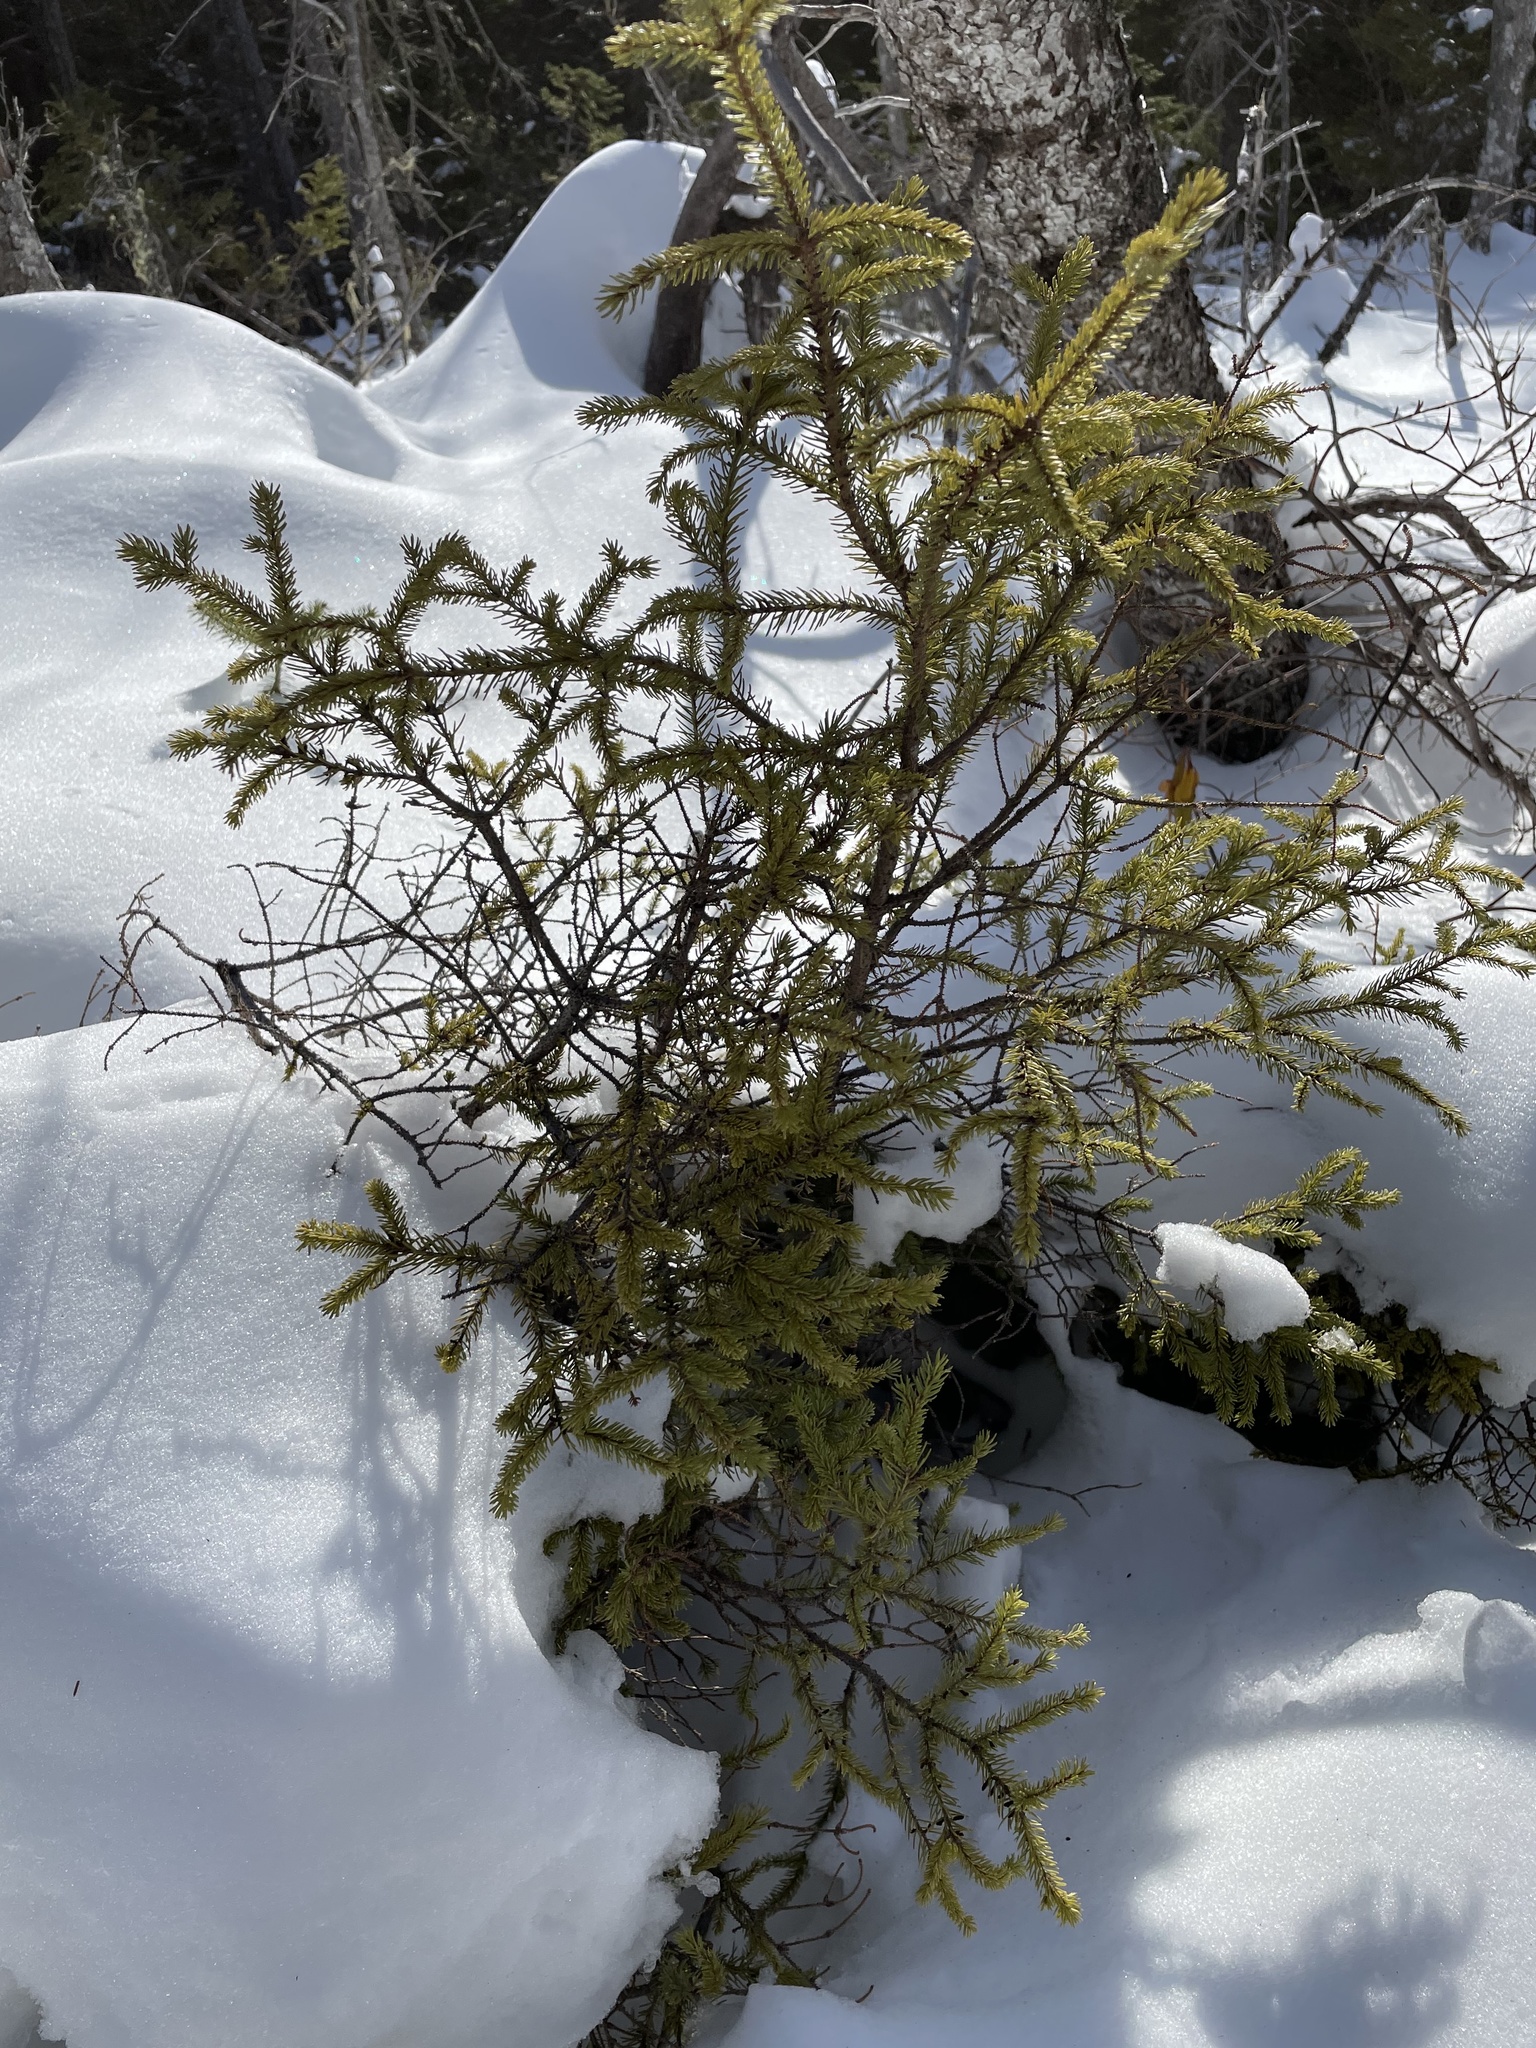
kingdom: Plantae
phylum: Tracheophyta
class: Pinopsida
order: Pinales
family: Pinaceae
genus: Picea
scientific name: Picea mariana
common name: Black spruce
